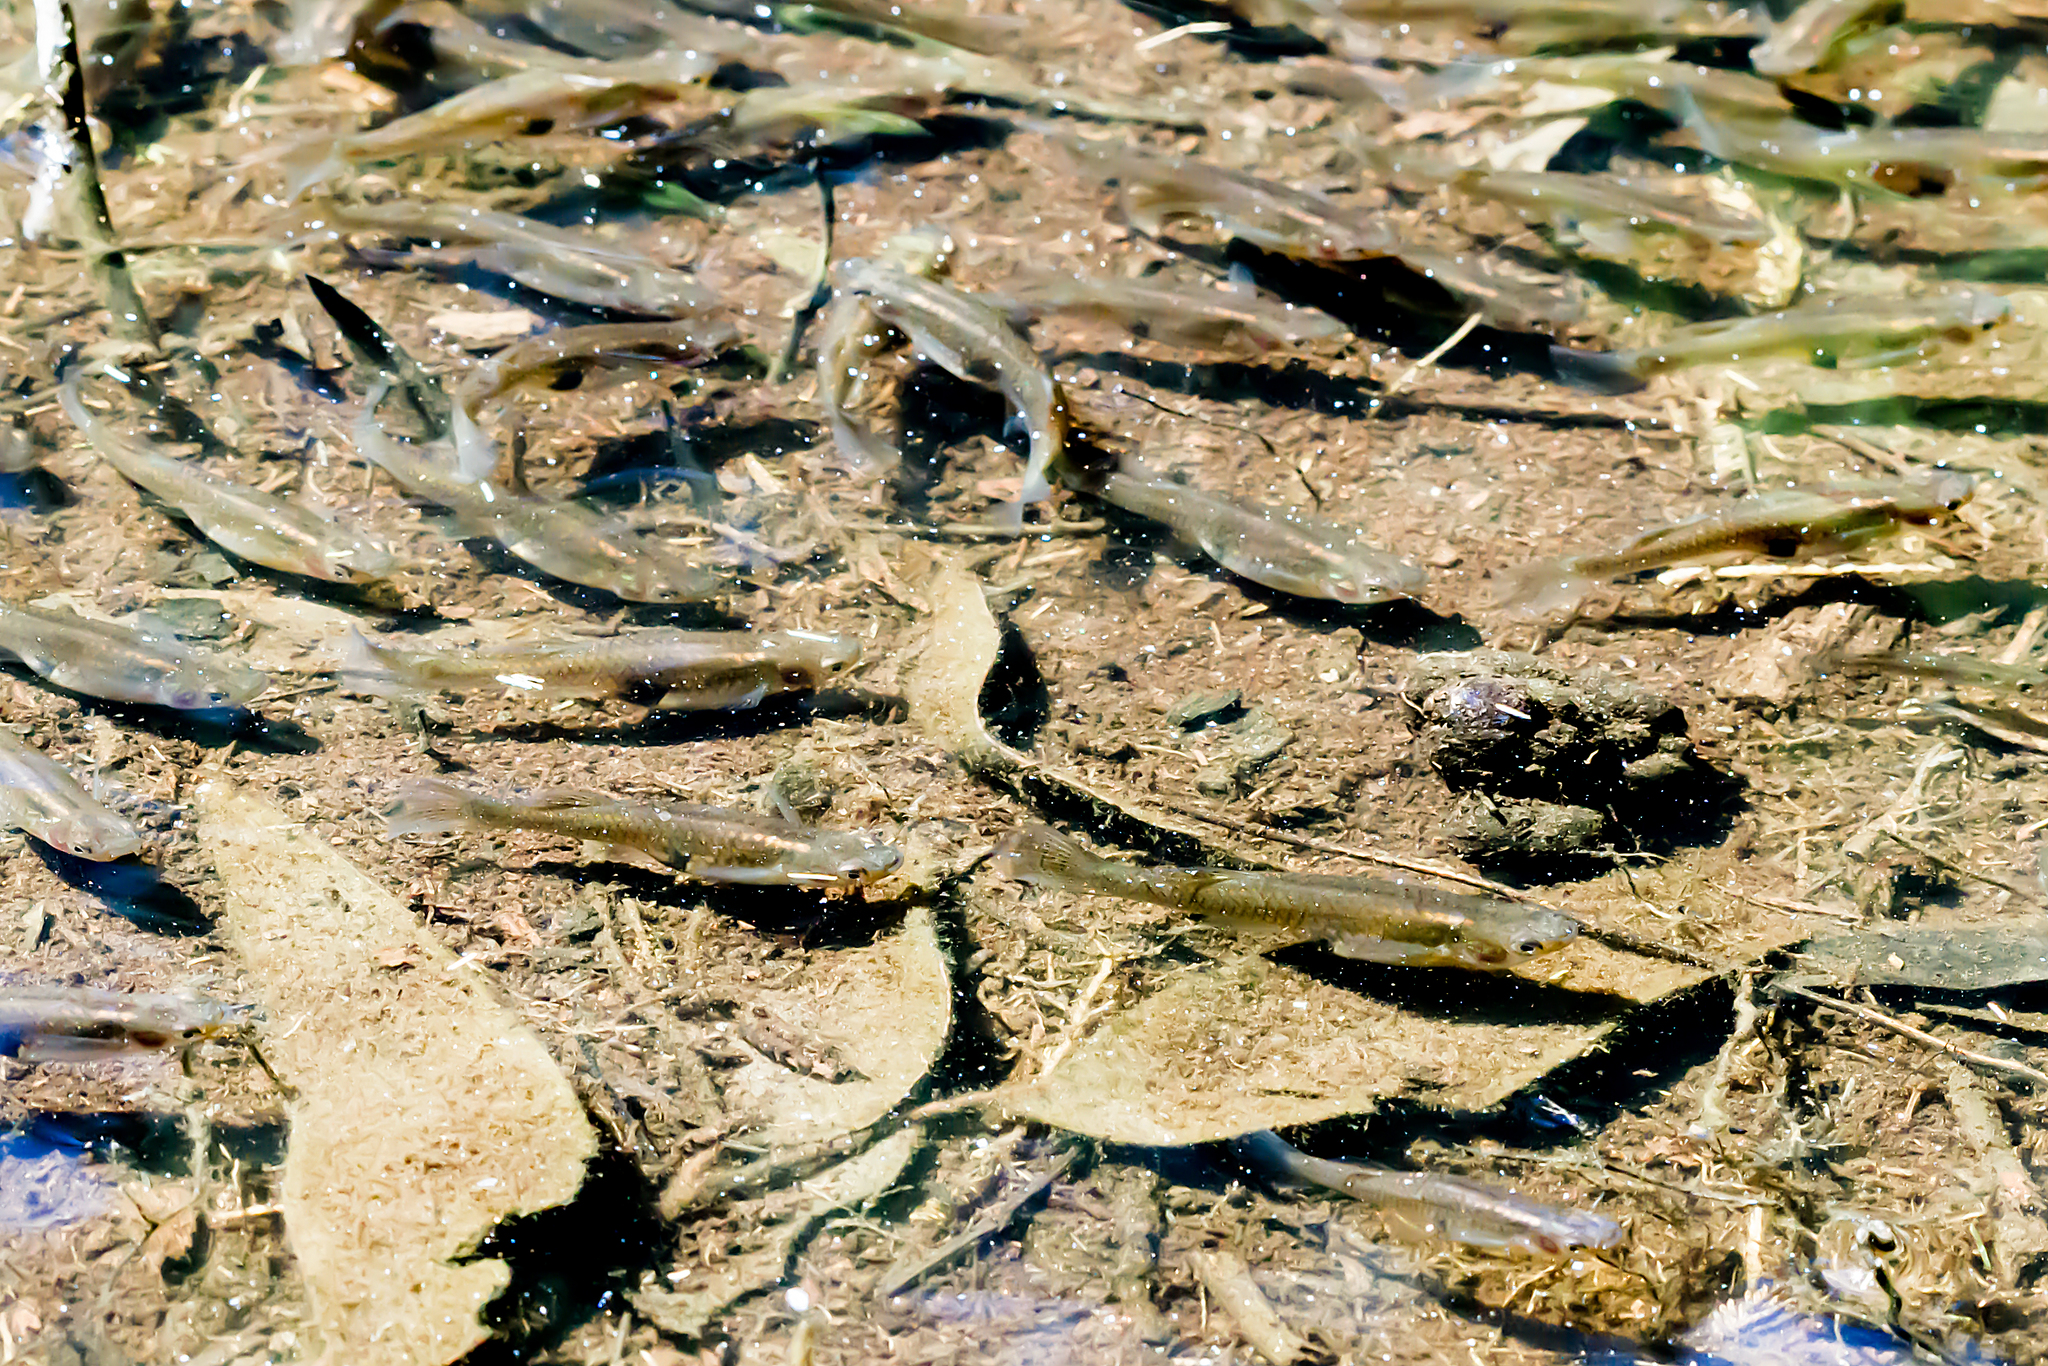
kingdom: Animalia
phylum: Chordata
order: Cyprinodontiformes
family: Poeciliidae
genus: Gambusia
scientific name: Gambusia holbrooki
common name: Eastern mosquitofish
